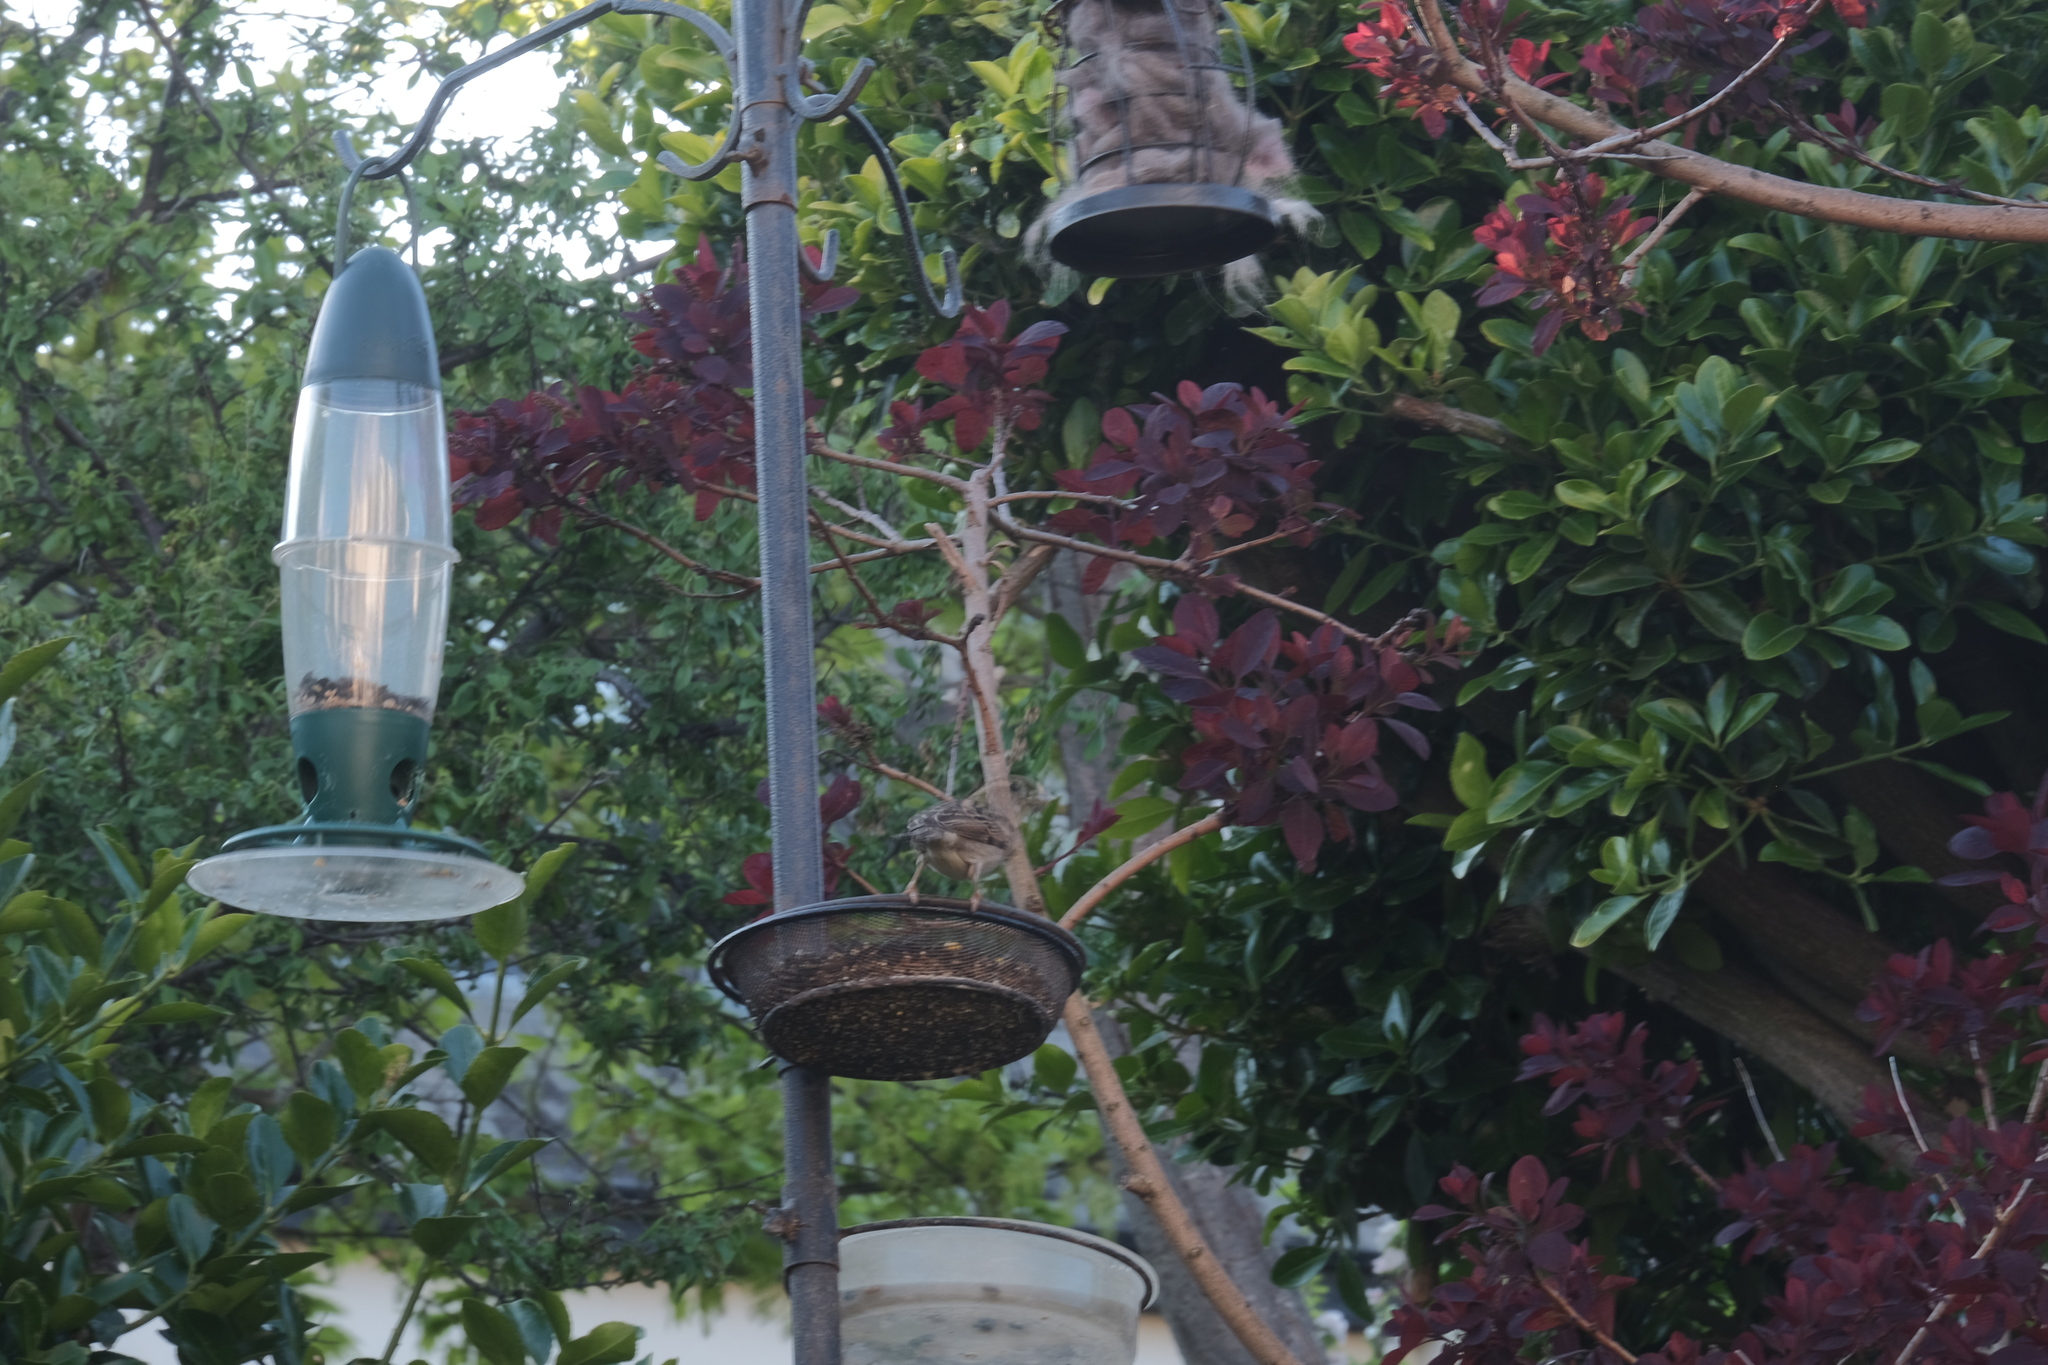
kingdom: Animalia
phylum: Chordata
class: Aves
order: Passeriformes
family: Passeridae
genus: Passer
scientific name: Passer domesticus
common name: House sparrow
